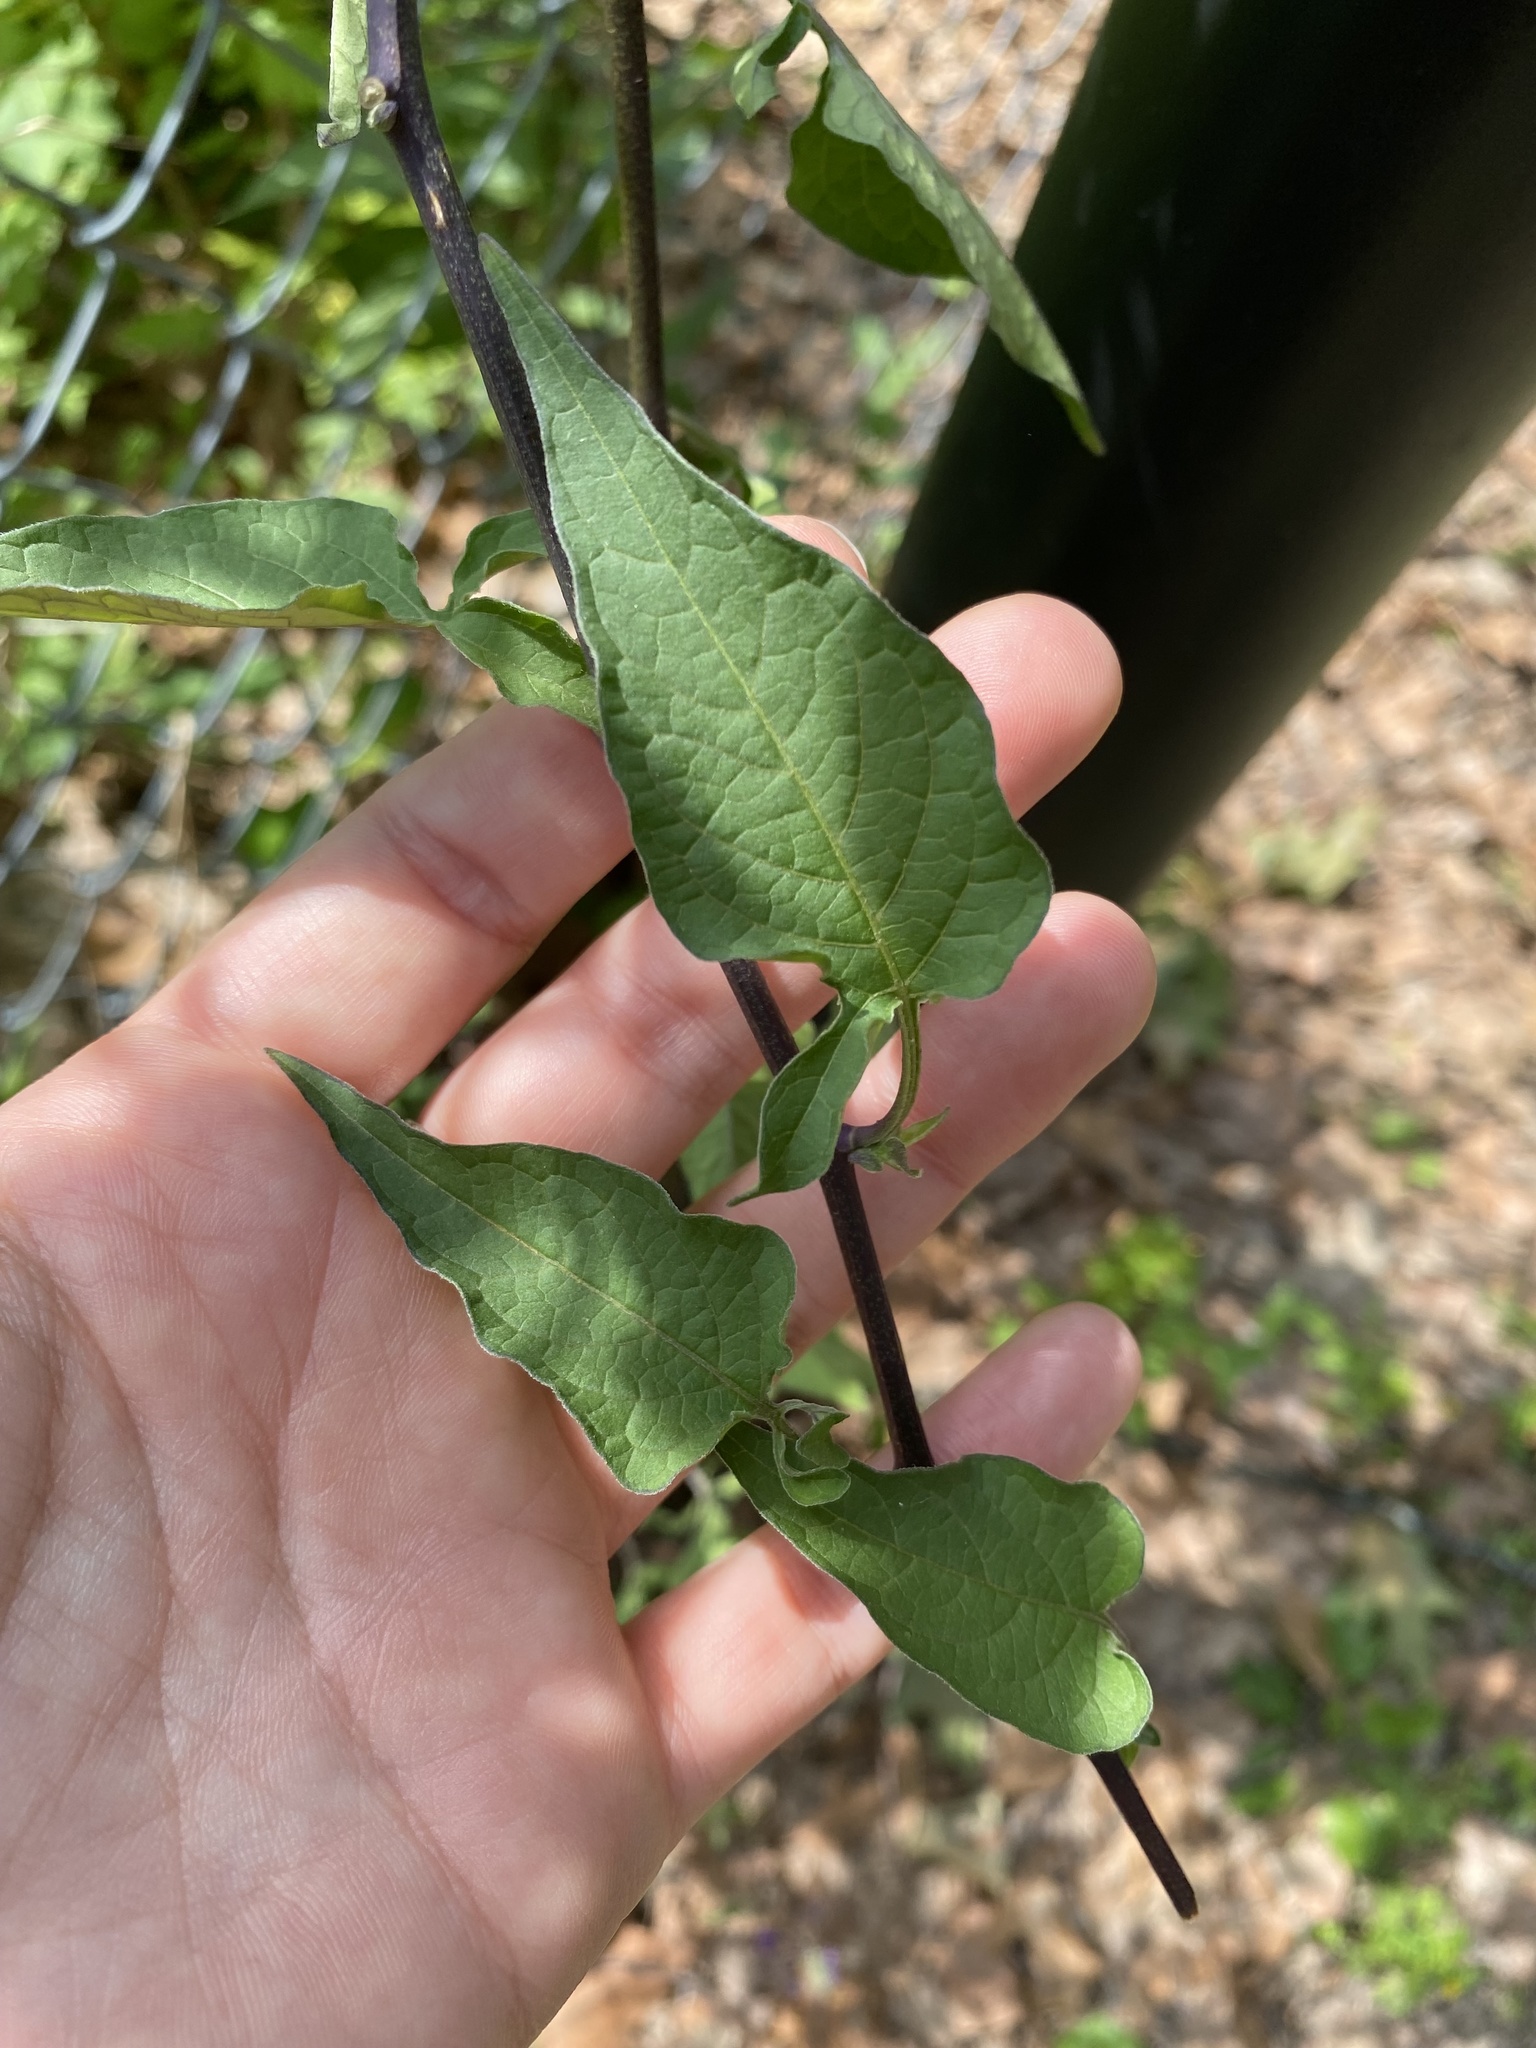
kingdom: Plantae
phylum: Tracheophyta
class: Magnoliopsida
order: Solanales
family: Solanaceae
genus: Solanum
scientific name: Solanum dulcamara
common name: Climbing nightshade
